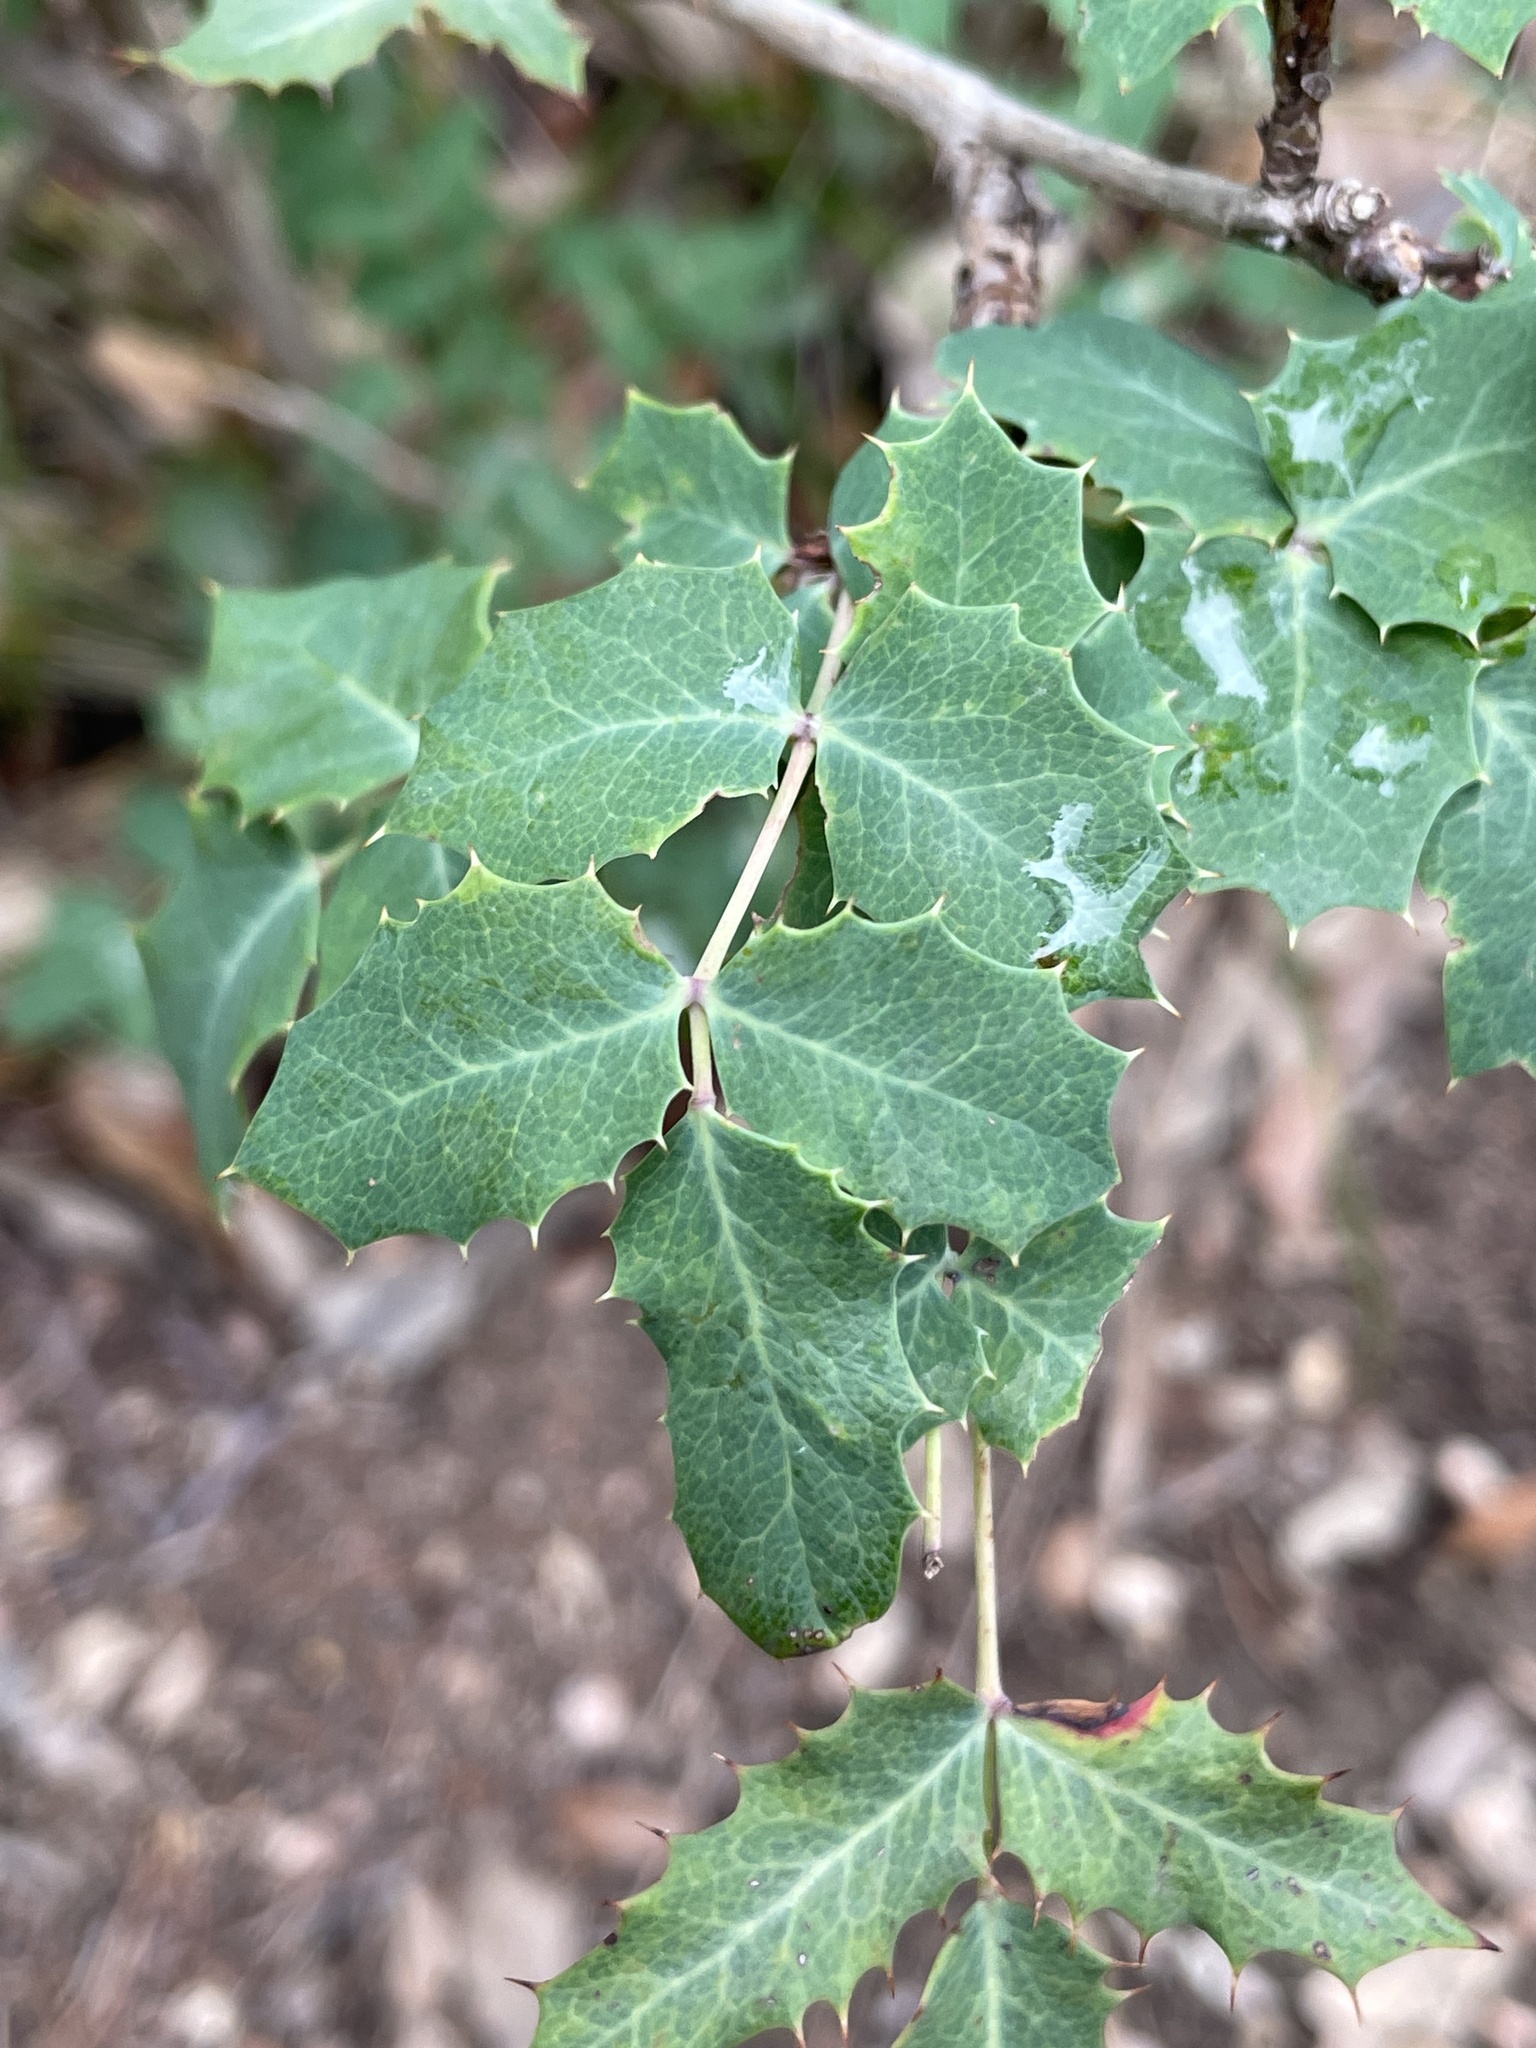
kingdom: Plantae
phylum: Tracheophyta
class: Magnoliopsida
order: Ranunculales
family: Berberidaceae
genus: Berberis
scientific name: Berberis swaseyi
